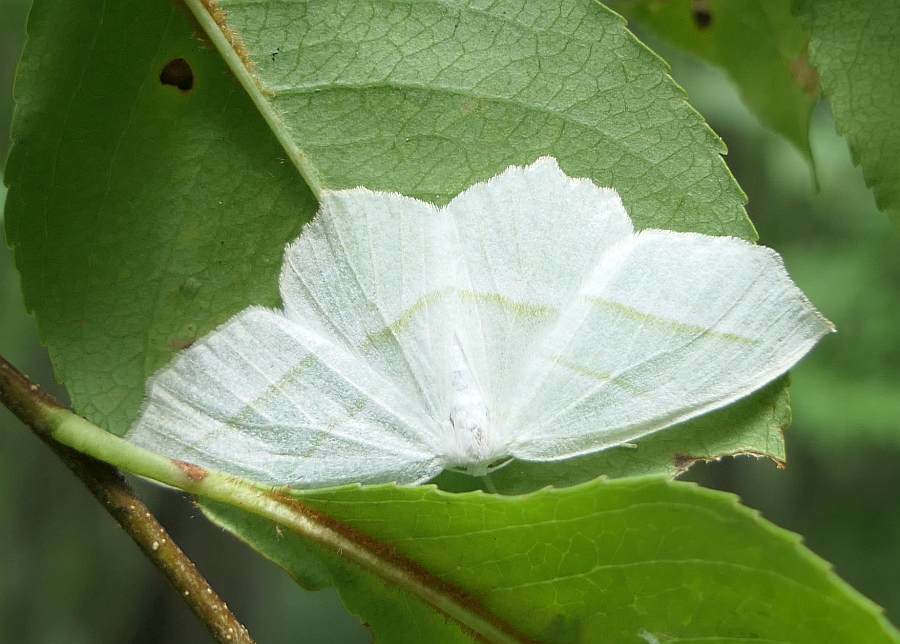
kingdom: Animalia
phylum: Arthropoda
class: Insecta
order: Lepidoptera
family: Geometridae
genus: Campaea
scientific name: Campaea perlata
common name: Fringed looper
